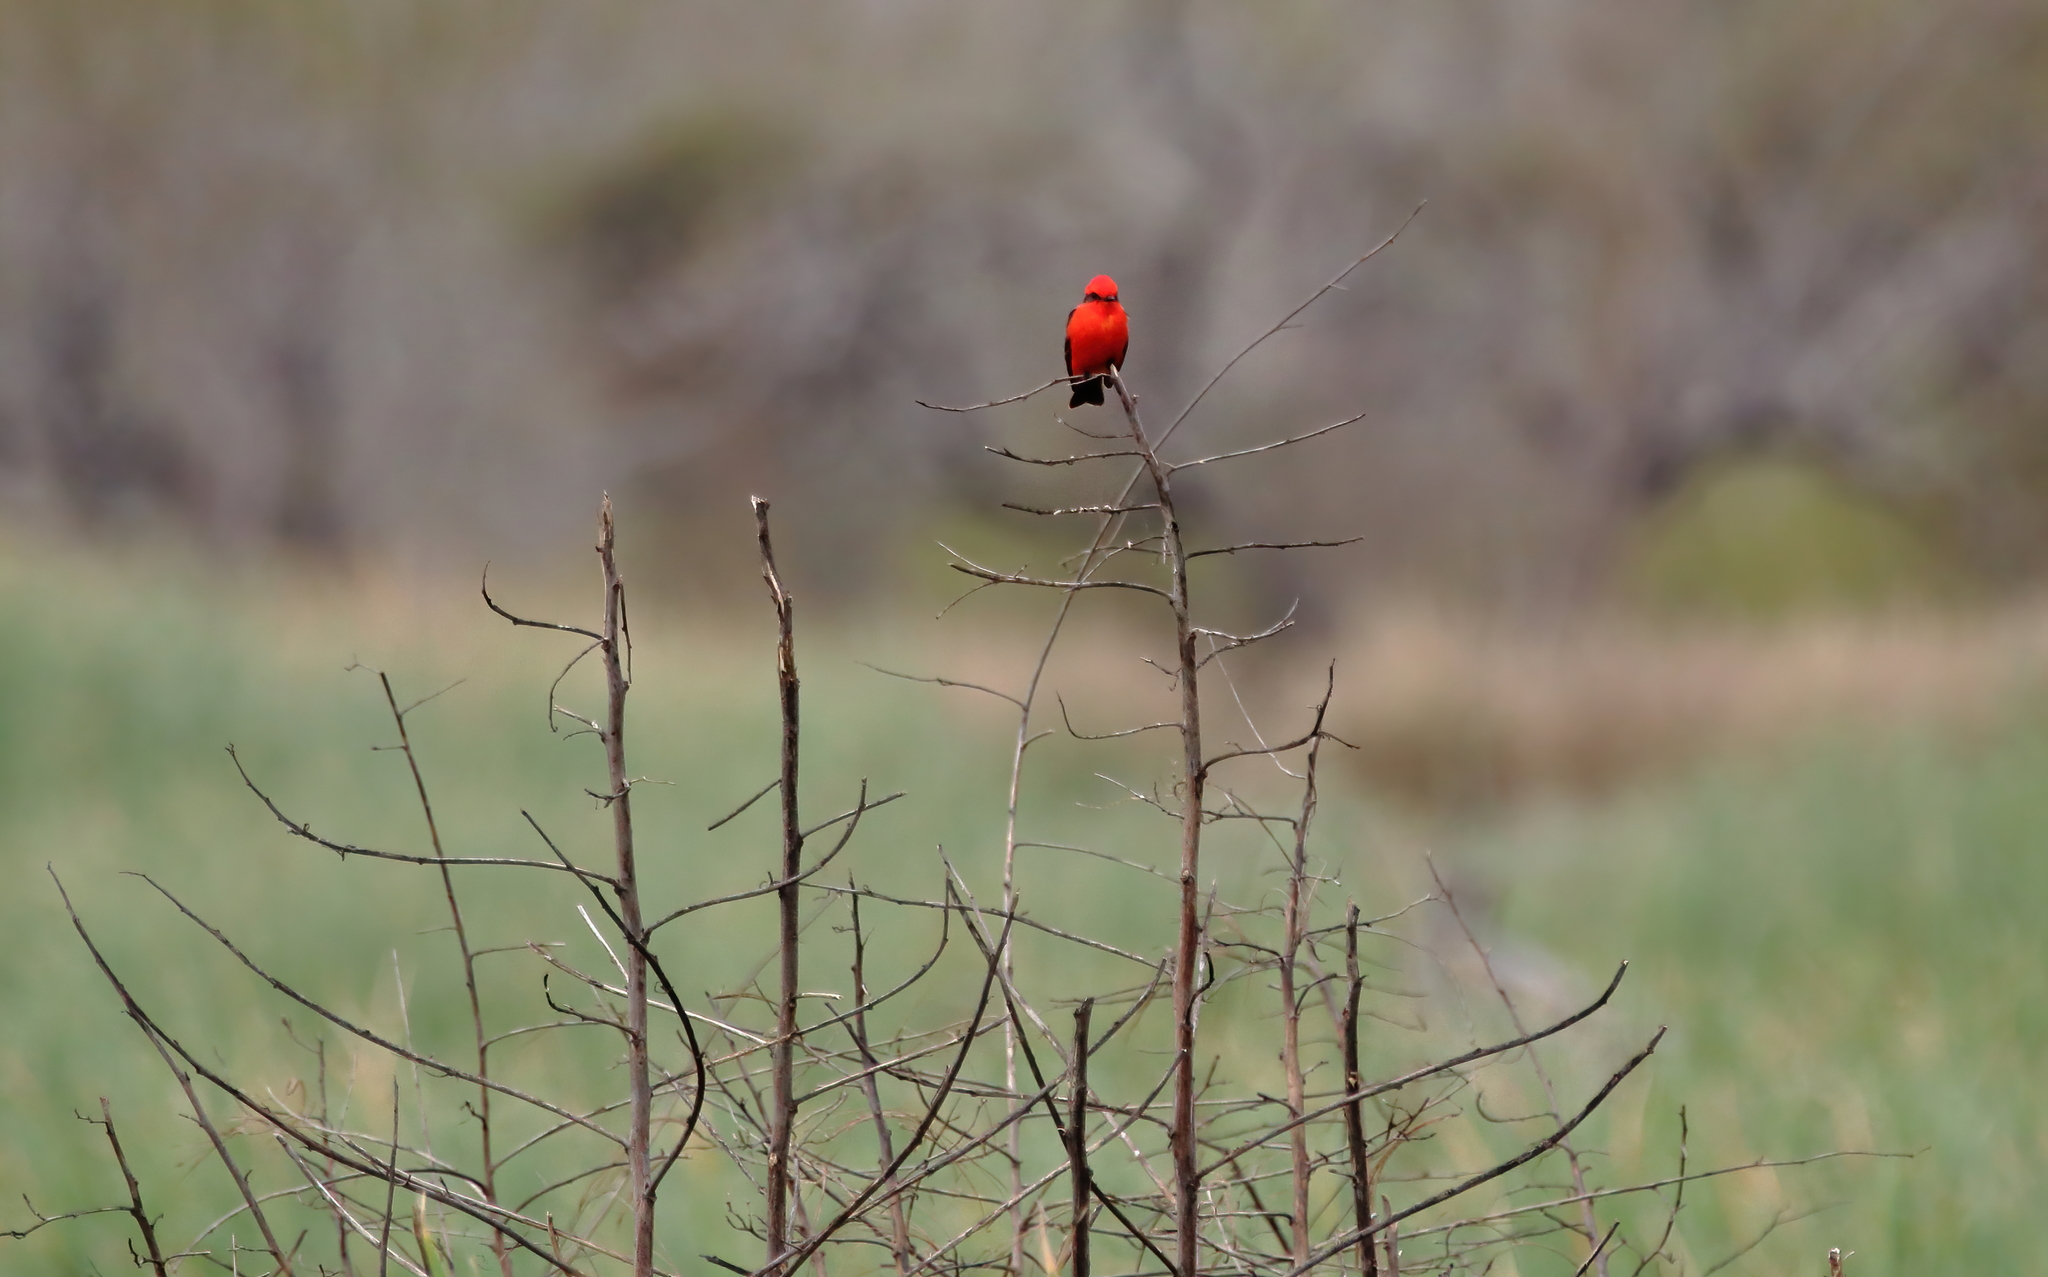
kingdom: Animalia
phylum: Chordata
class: Aves
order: Passeriformes
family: Tyrannidae
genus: Pyrocephalus
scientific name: Pyrocephalus rubinus
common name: Vermilion flycatcher
